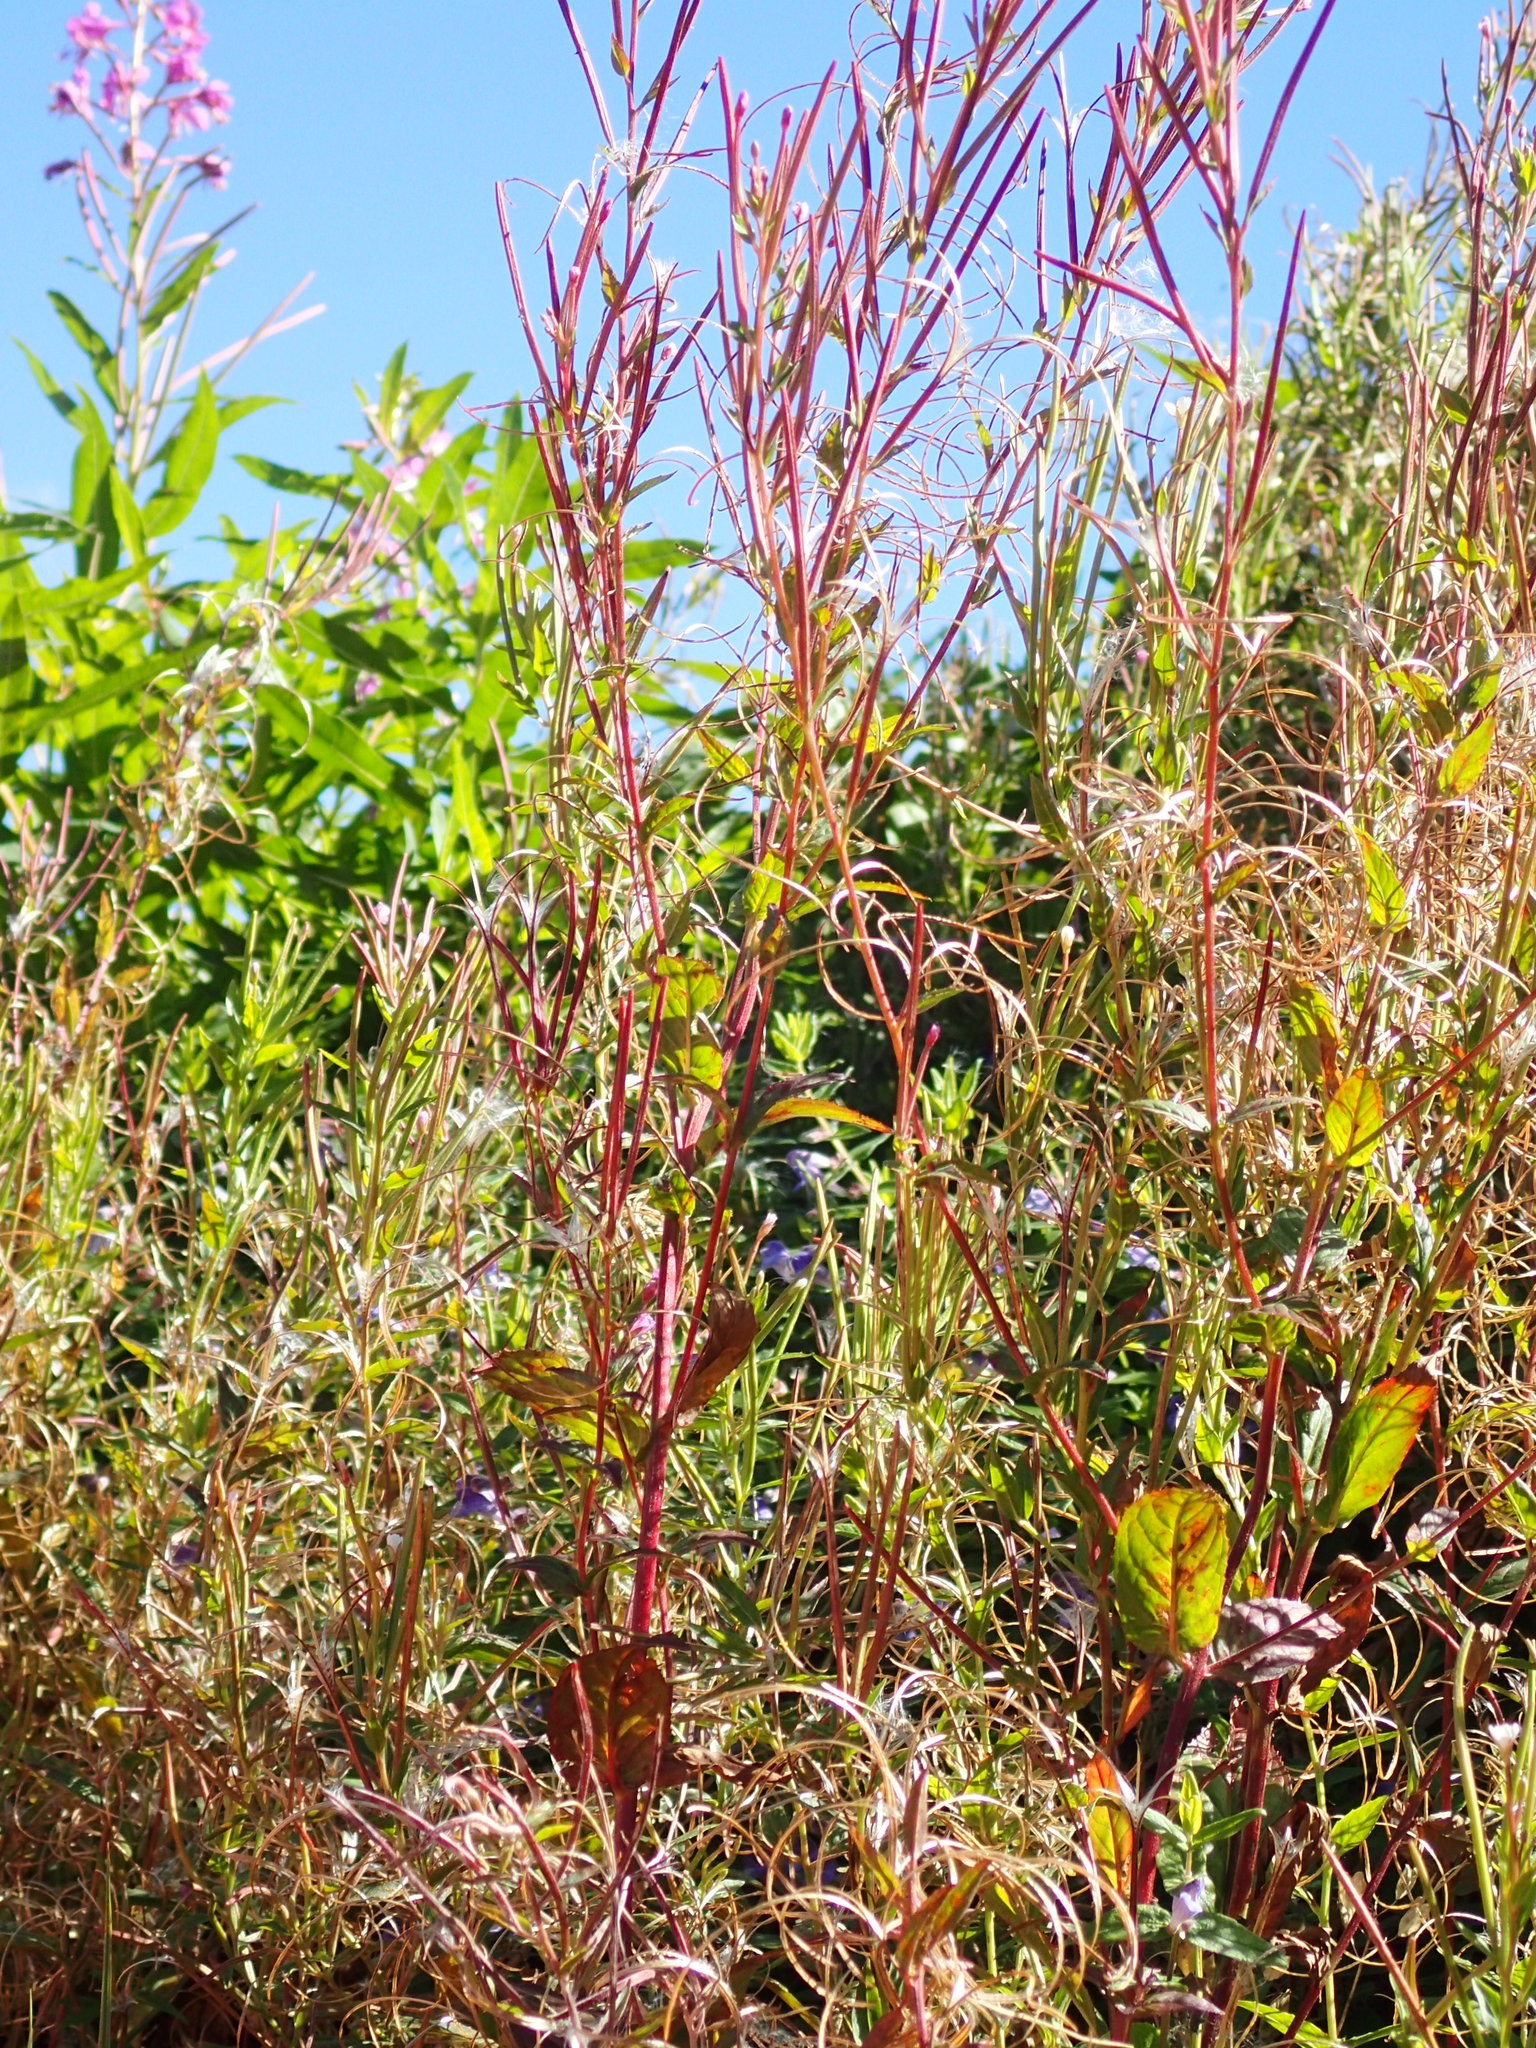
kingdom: Plantae
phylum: Tracheophyta
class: Magnoliopsida
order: Myrtales
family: Onagraceae
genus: Chamaenerion
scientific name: Chamaenerion angustifolium
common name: Fireweed
